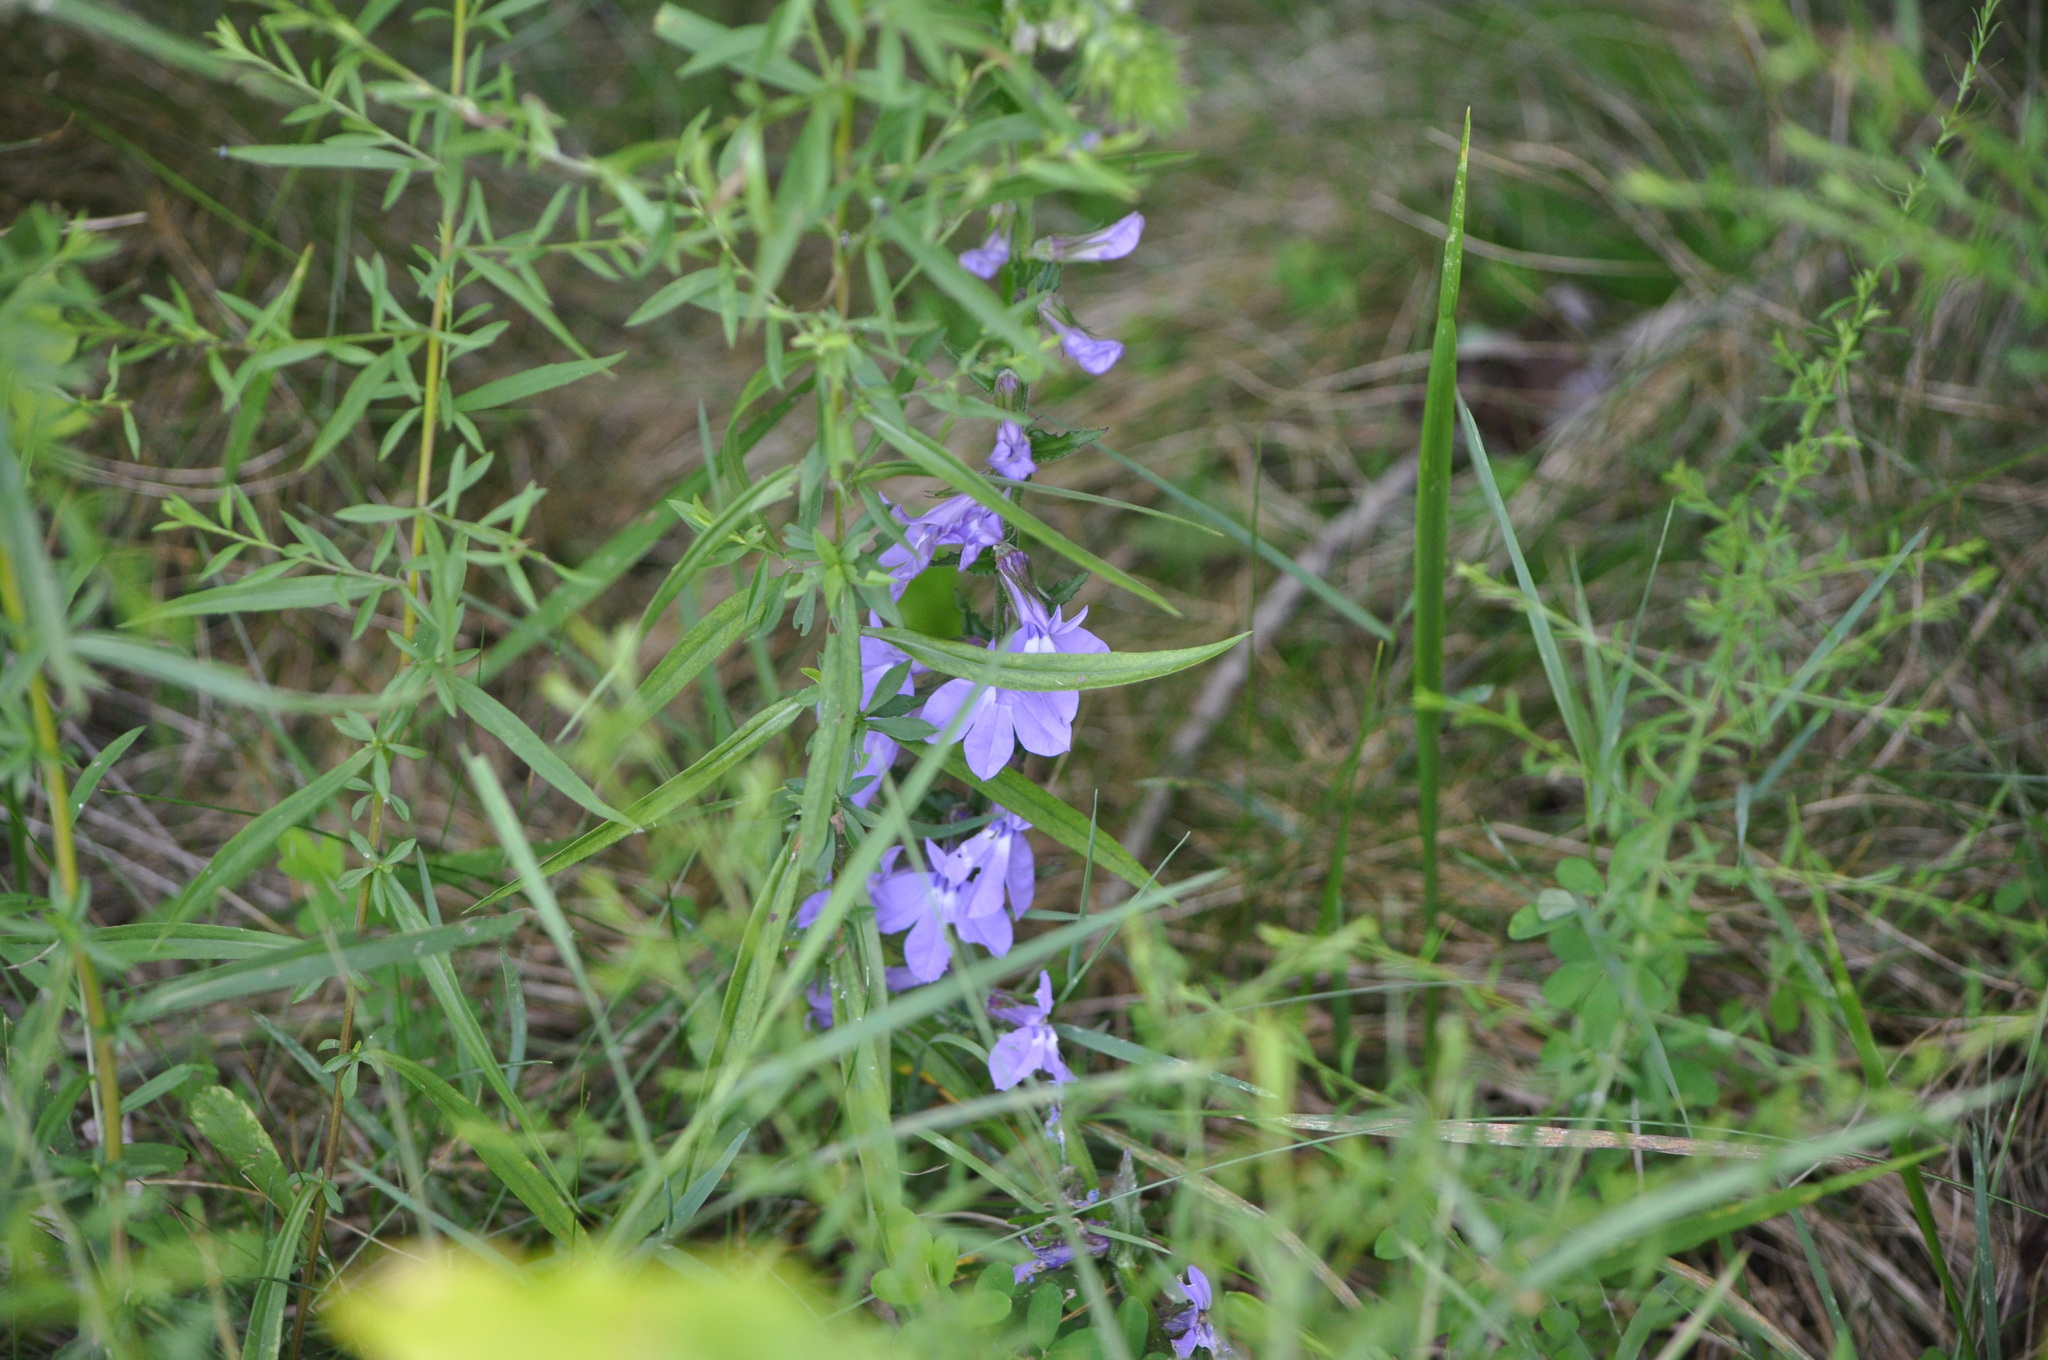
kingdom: Plantae
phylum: Tracheophyta
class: Magnoliopsida
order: Asterales
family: Campanulaceae
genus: Lobelia
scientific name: Lobelia puberula
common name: Purple dewdrop
